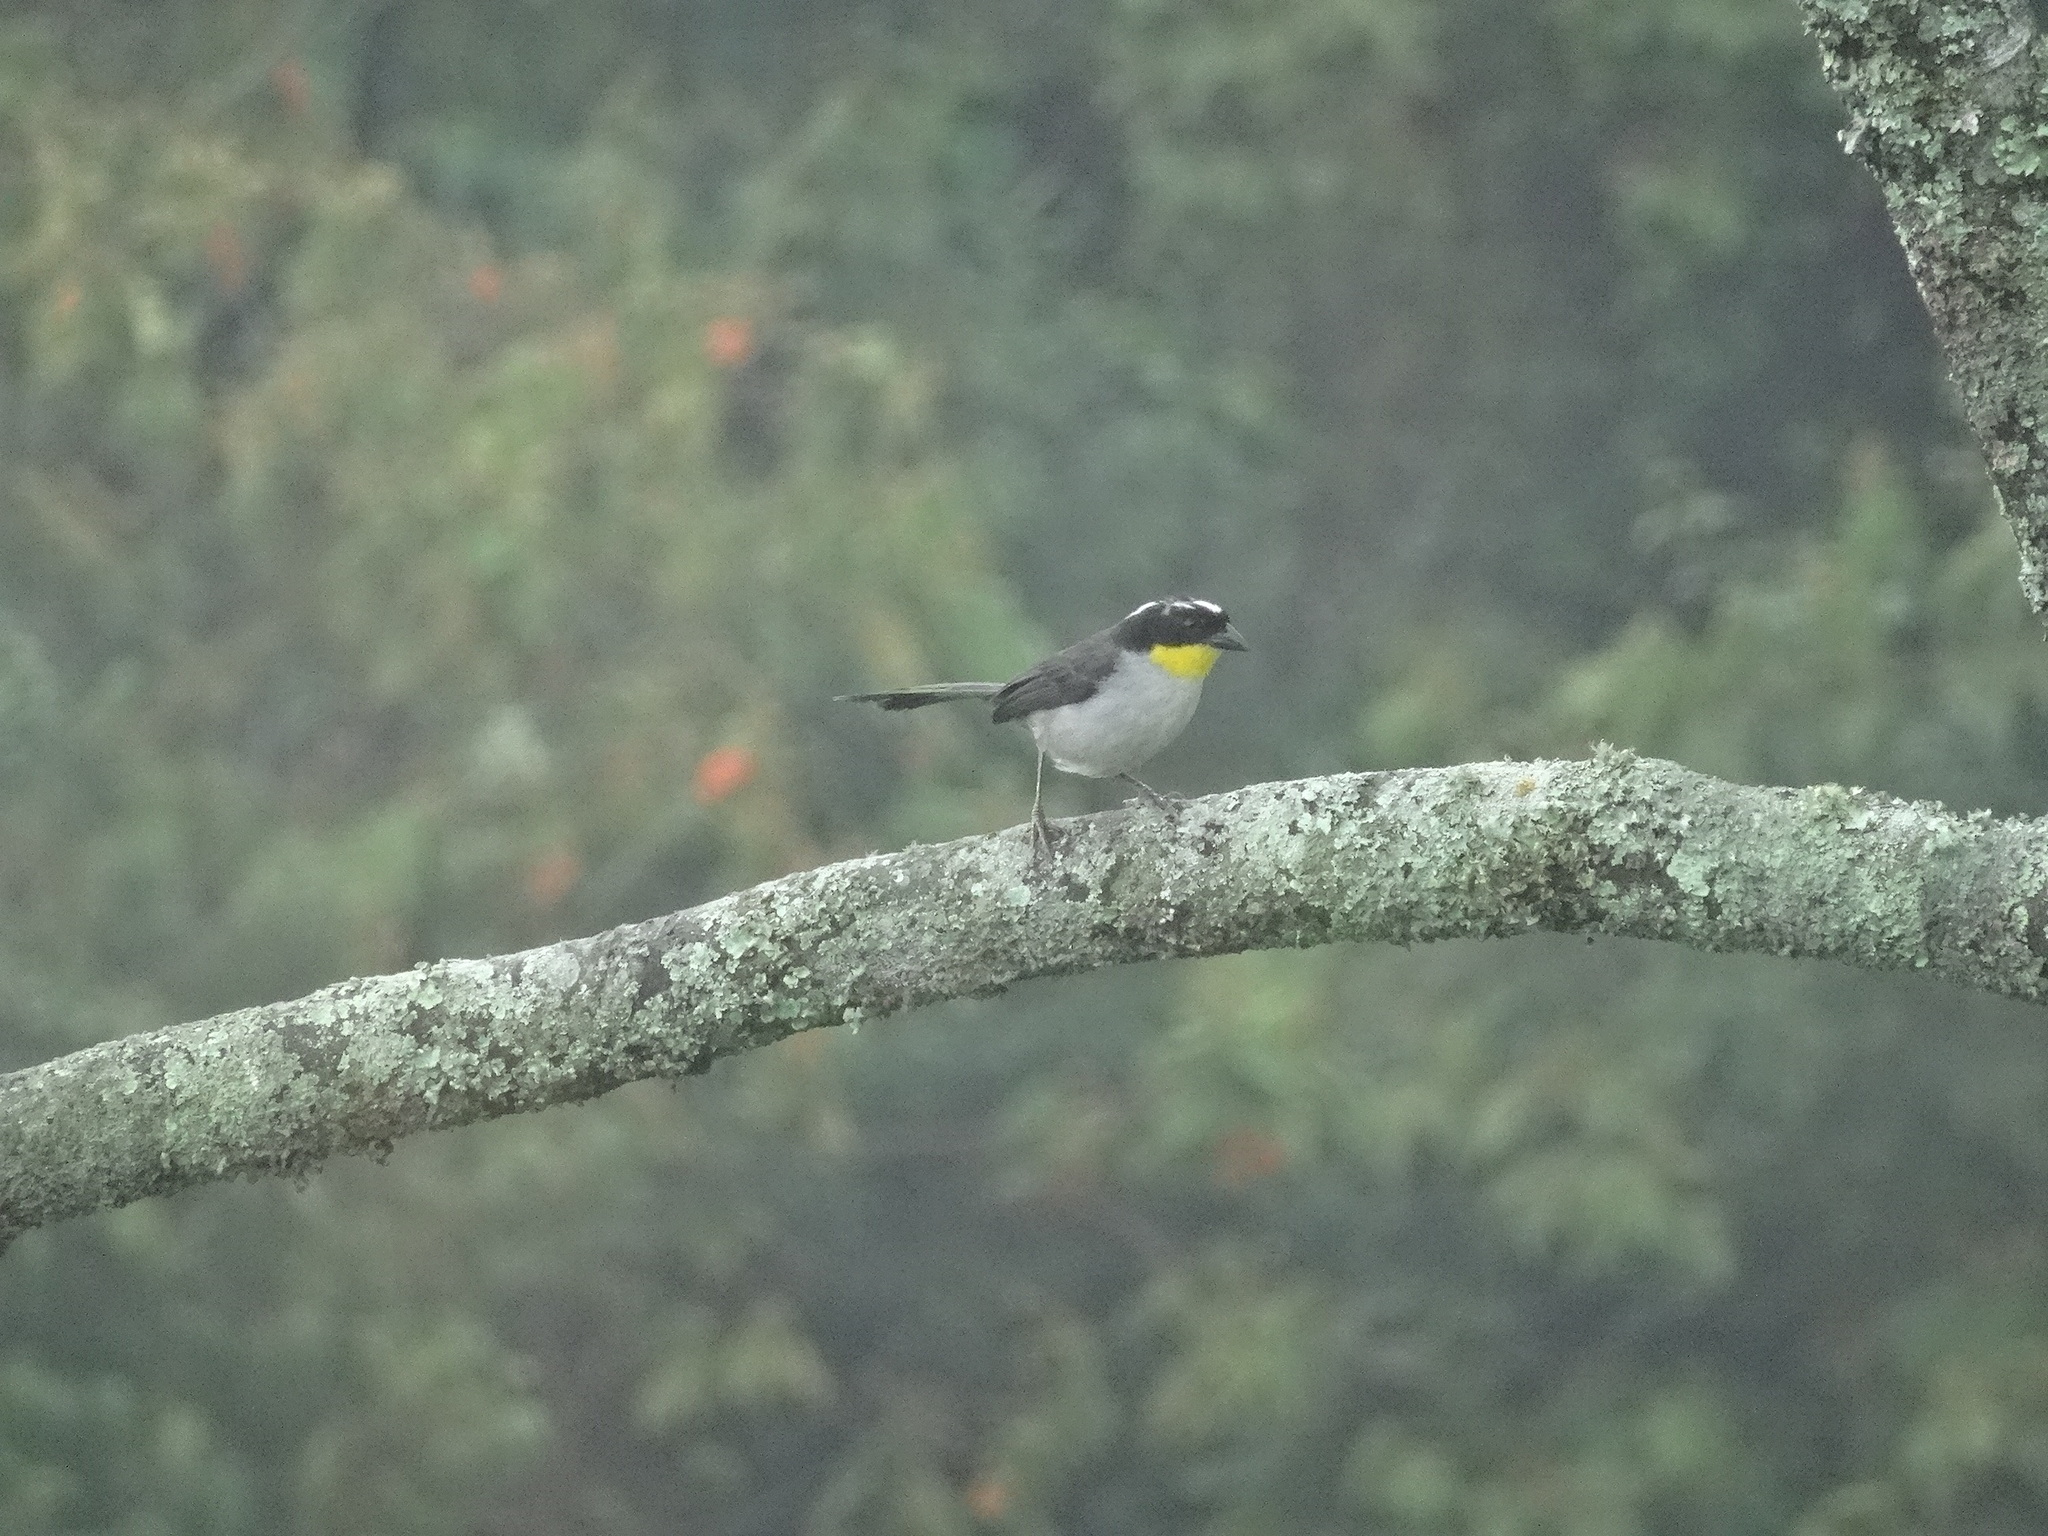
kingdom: Animalia
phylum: Chordata
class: Aves
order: Passeriformes
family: Passerellidae
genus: Atlapetes
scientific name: Atlapetes albinucha
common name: White-naped brush-finch
